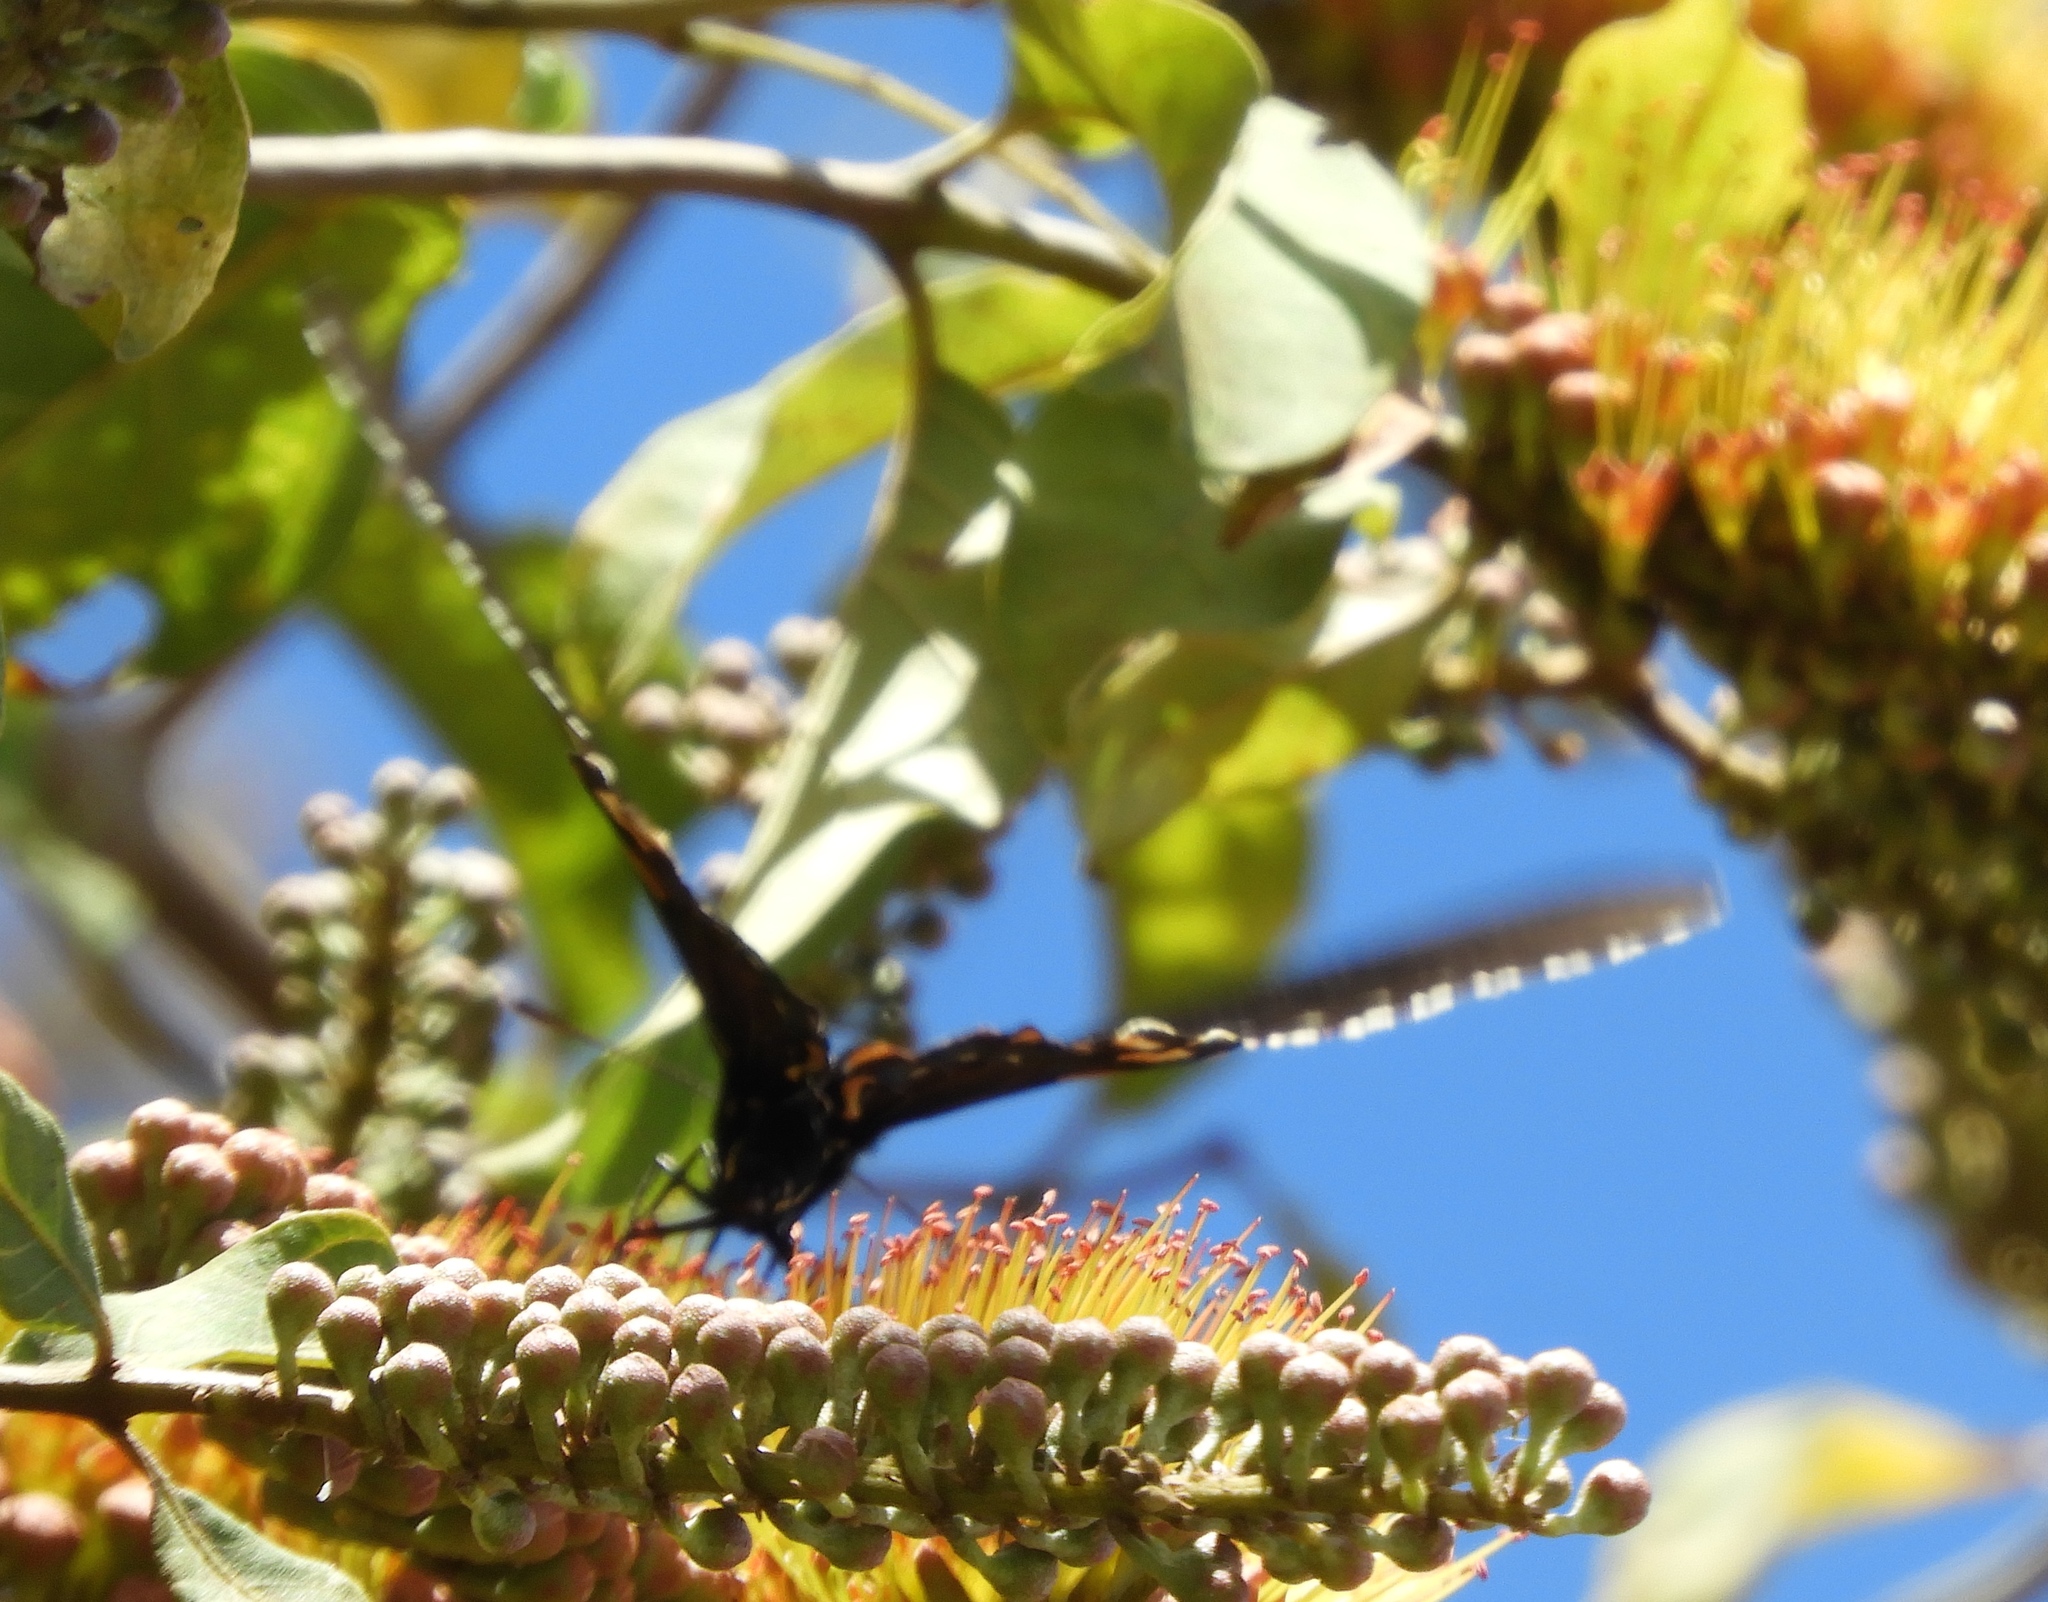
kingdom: Animalia
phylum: Arthropoda
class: Insecta
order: Lepidoptera
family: Papilionidae
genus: Battus
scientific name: Battus philenor
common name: Pipevine swallowtail
